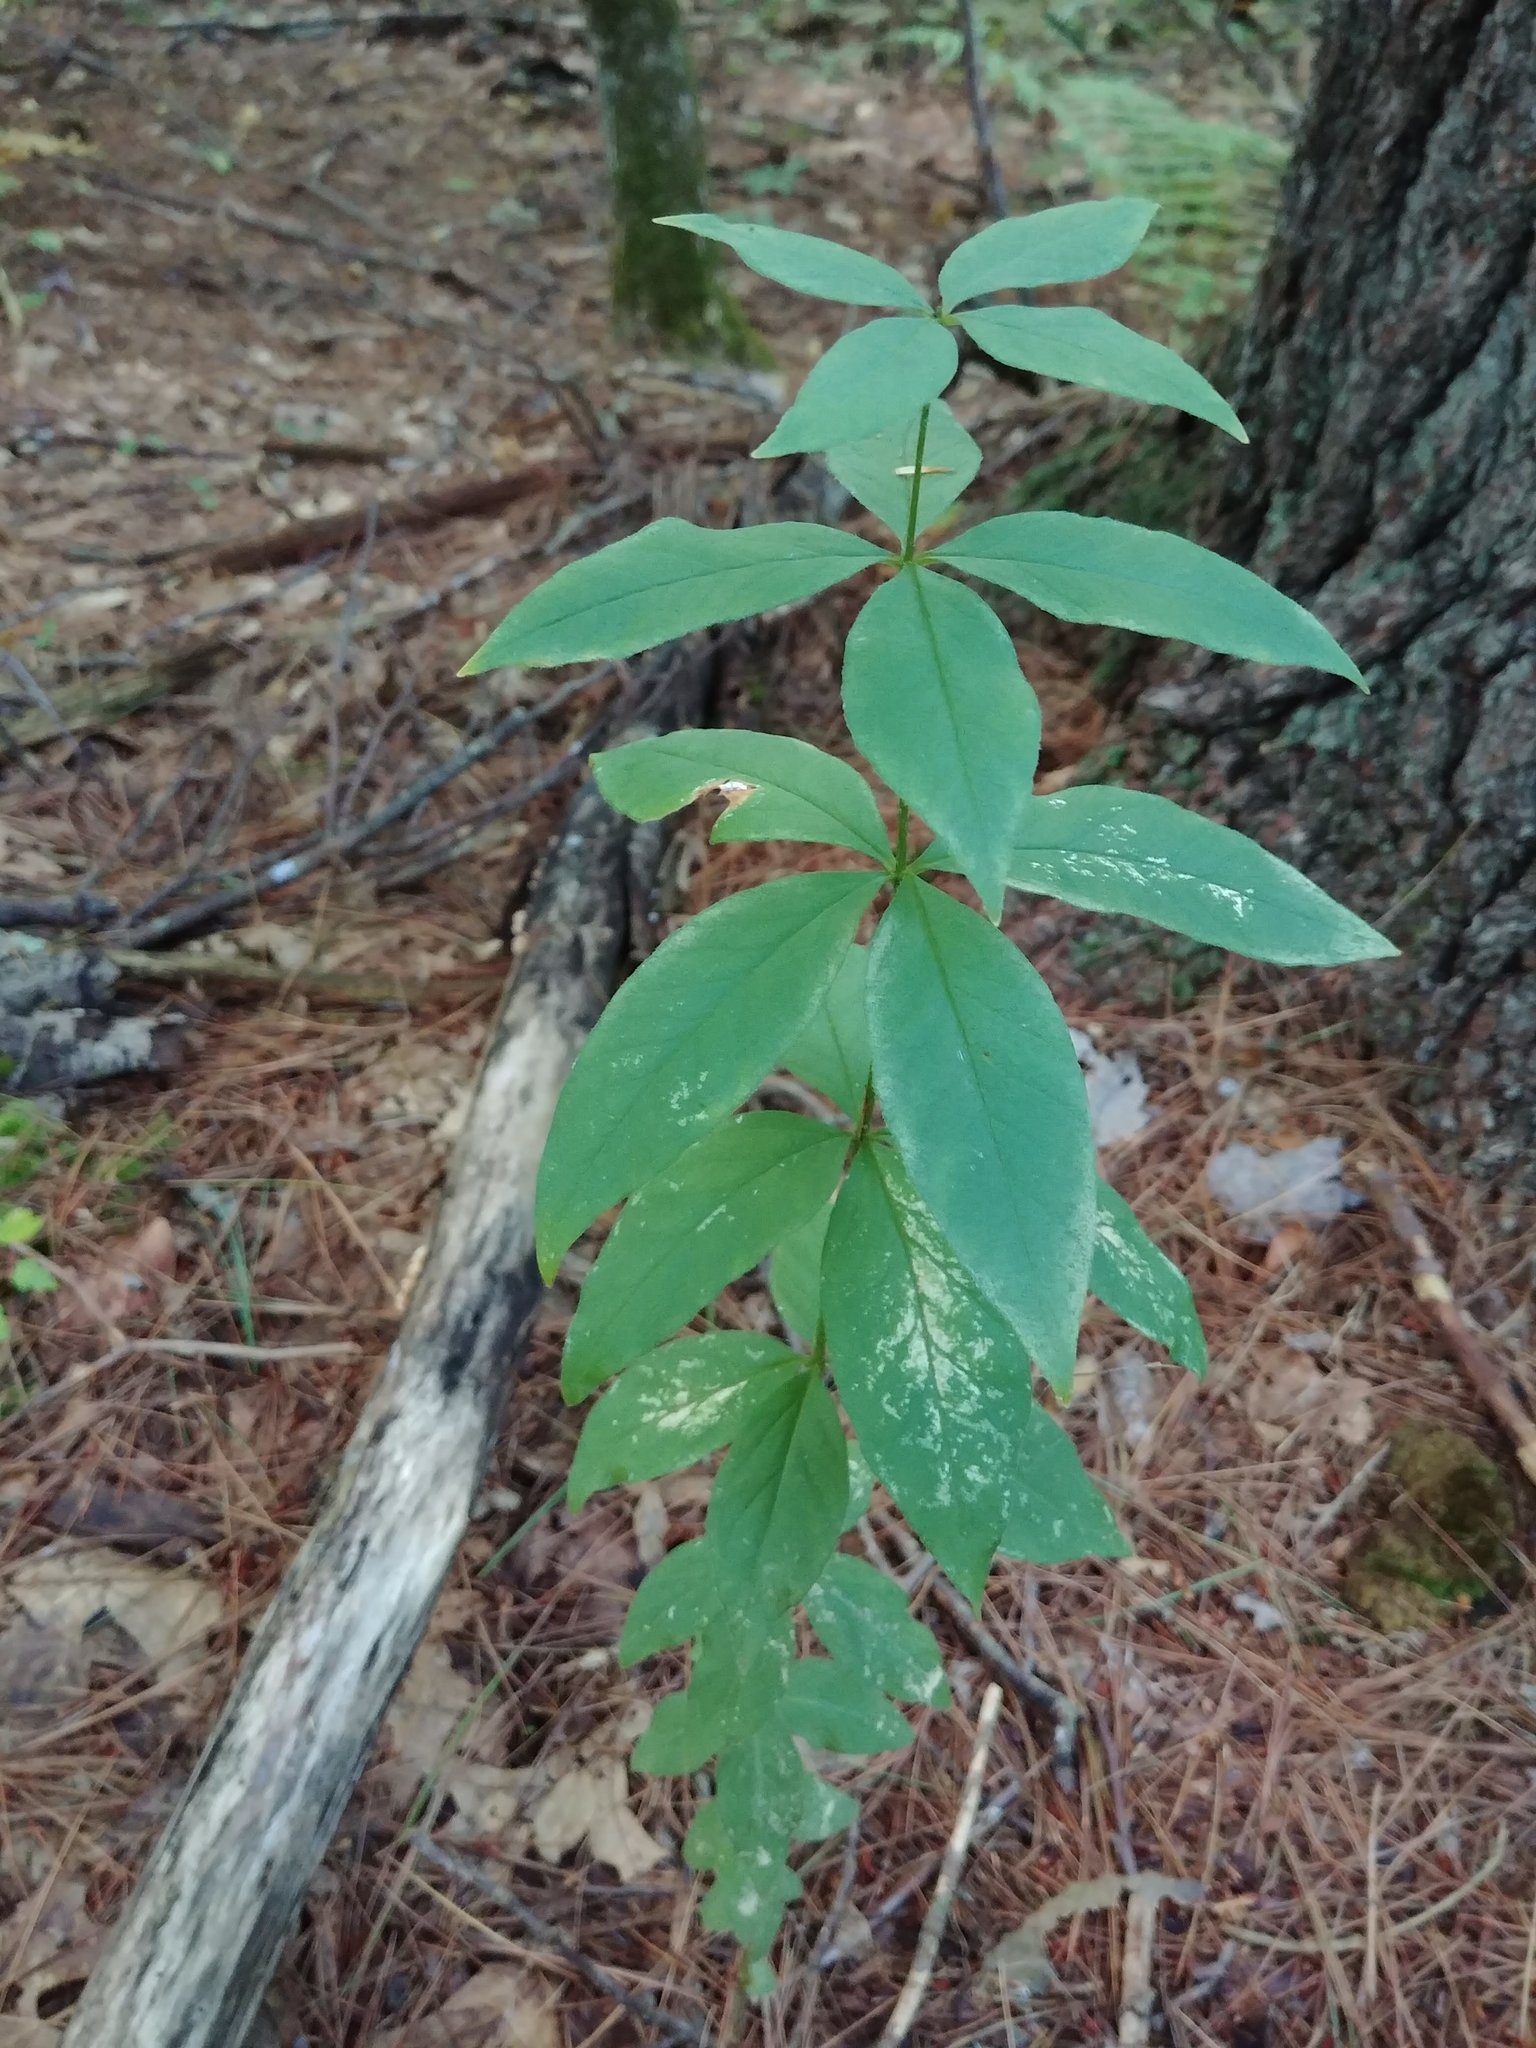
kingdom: Plantae
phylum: Tracheophyta
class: Magnoliopsida
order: Ericales
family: Primulaceae
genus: Lysimachia
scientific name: Lysimachia quadrifolia
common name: Whorled loosestrife
